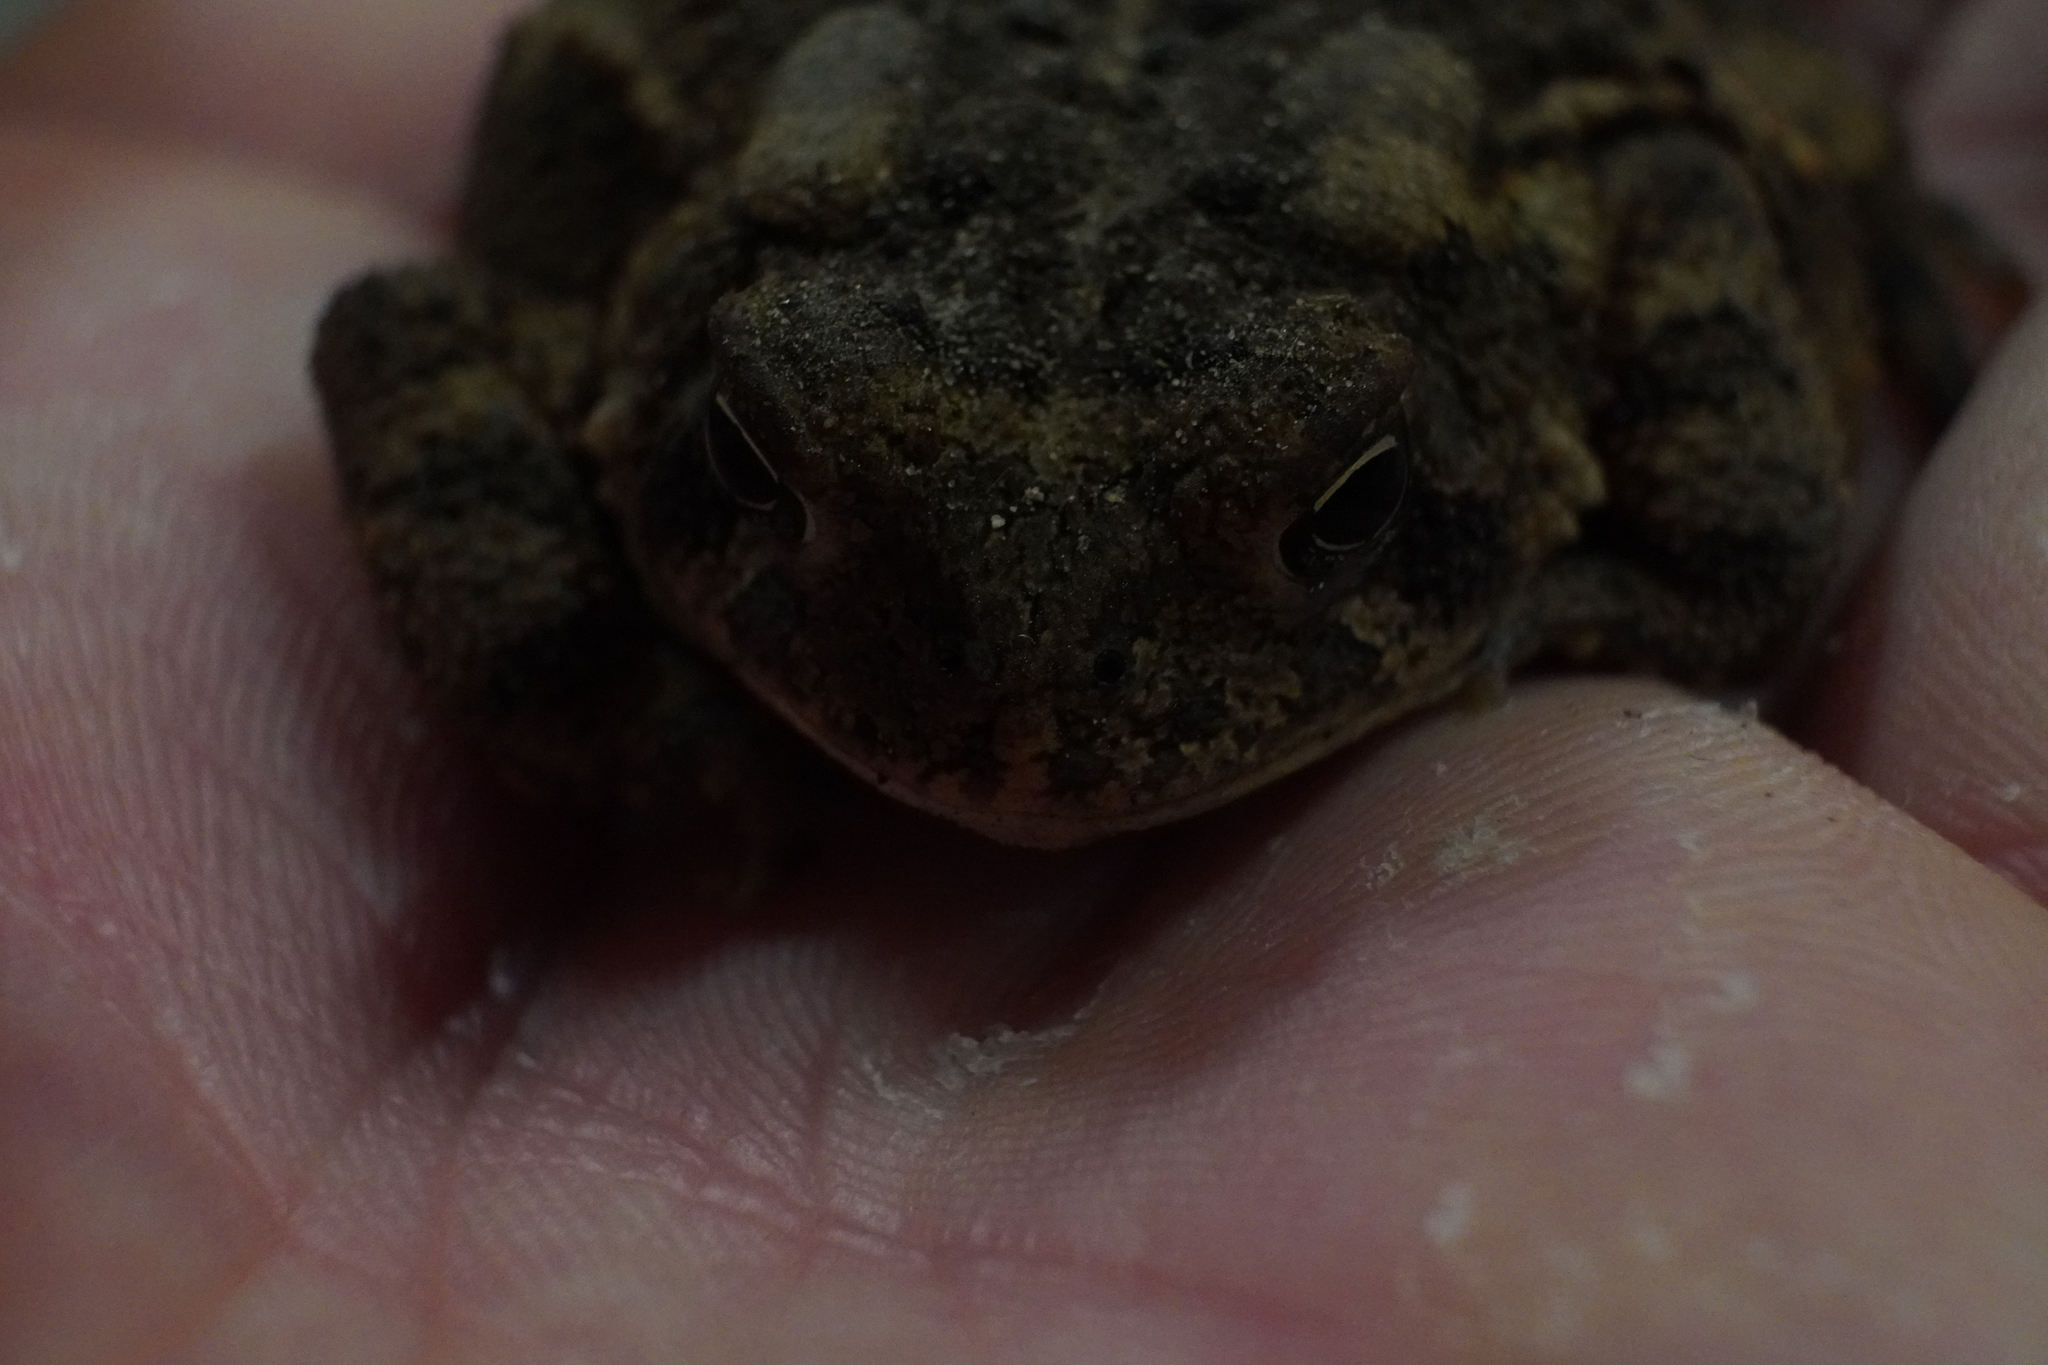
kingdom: Animalia
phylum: Chordata
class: Amphibia
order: Anura
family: Bufonidae
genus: Anaxyrus
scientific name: Anaxyrus americanus
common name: American toad
